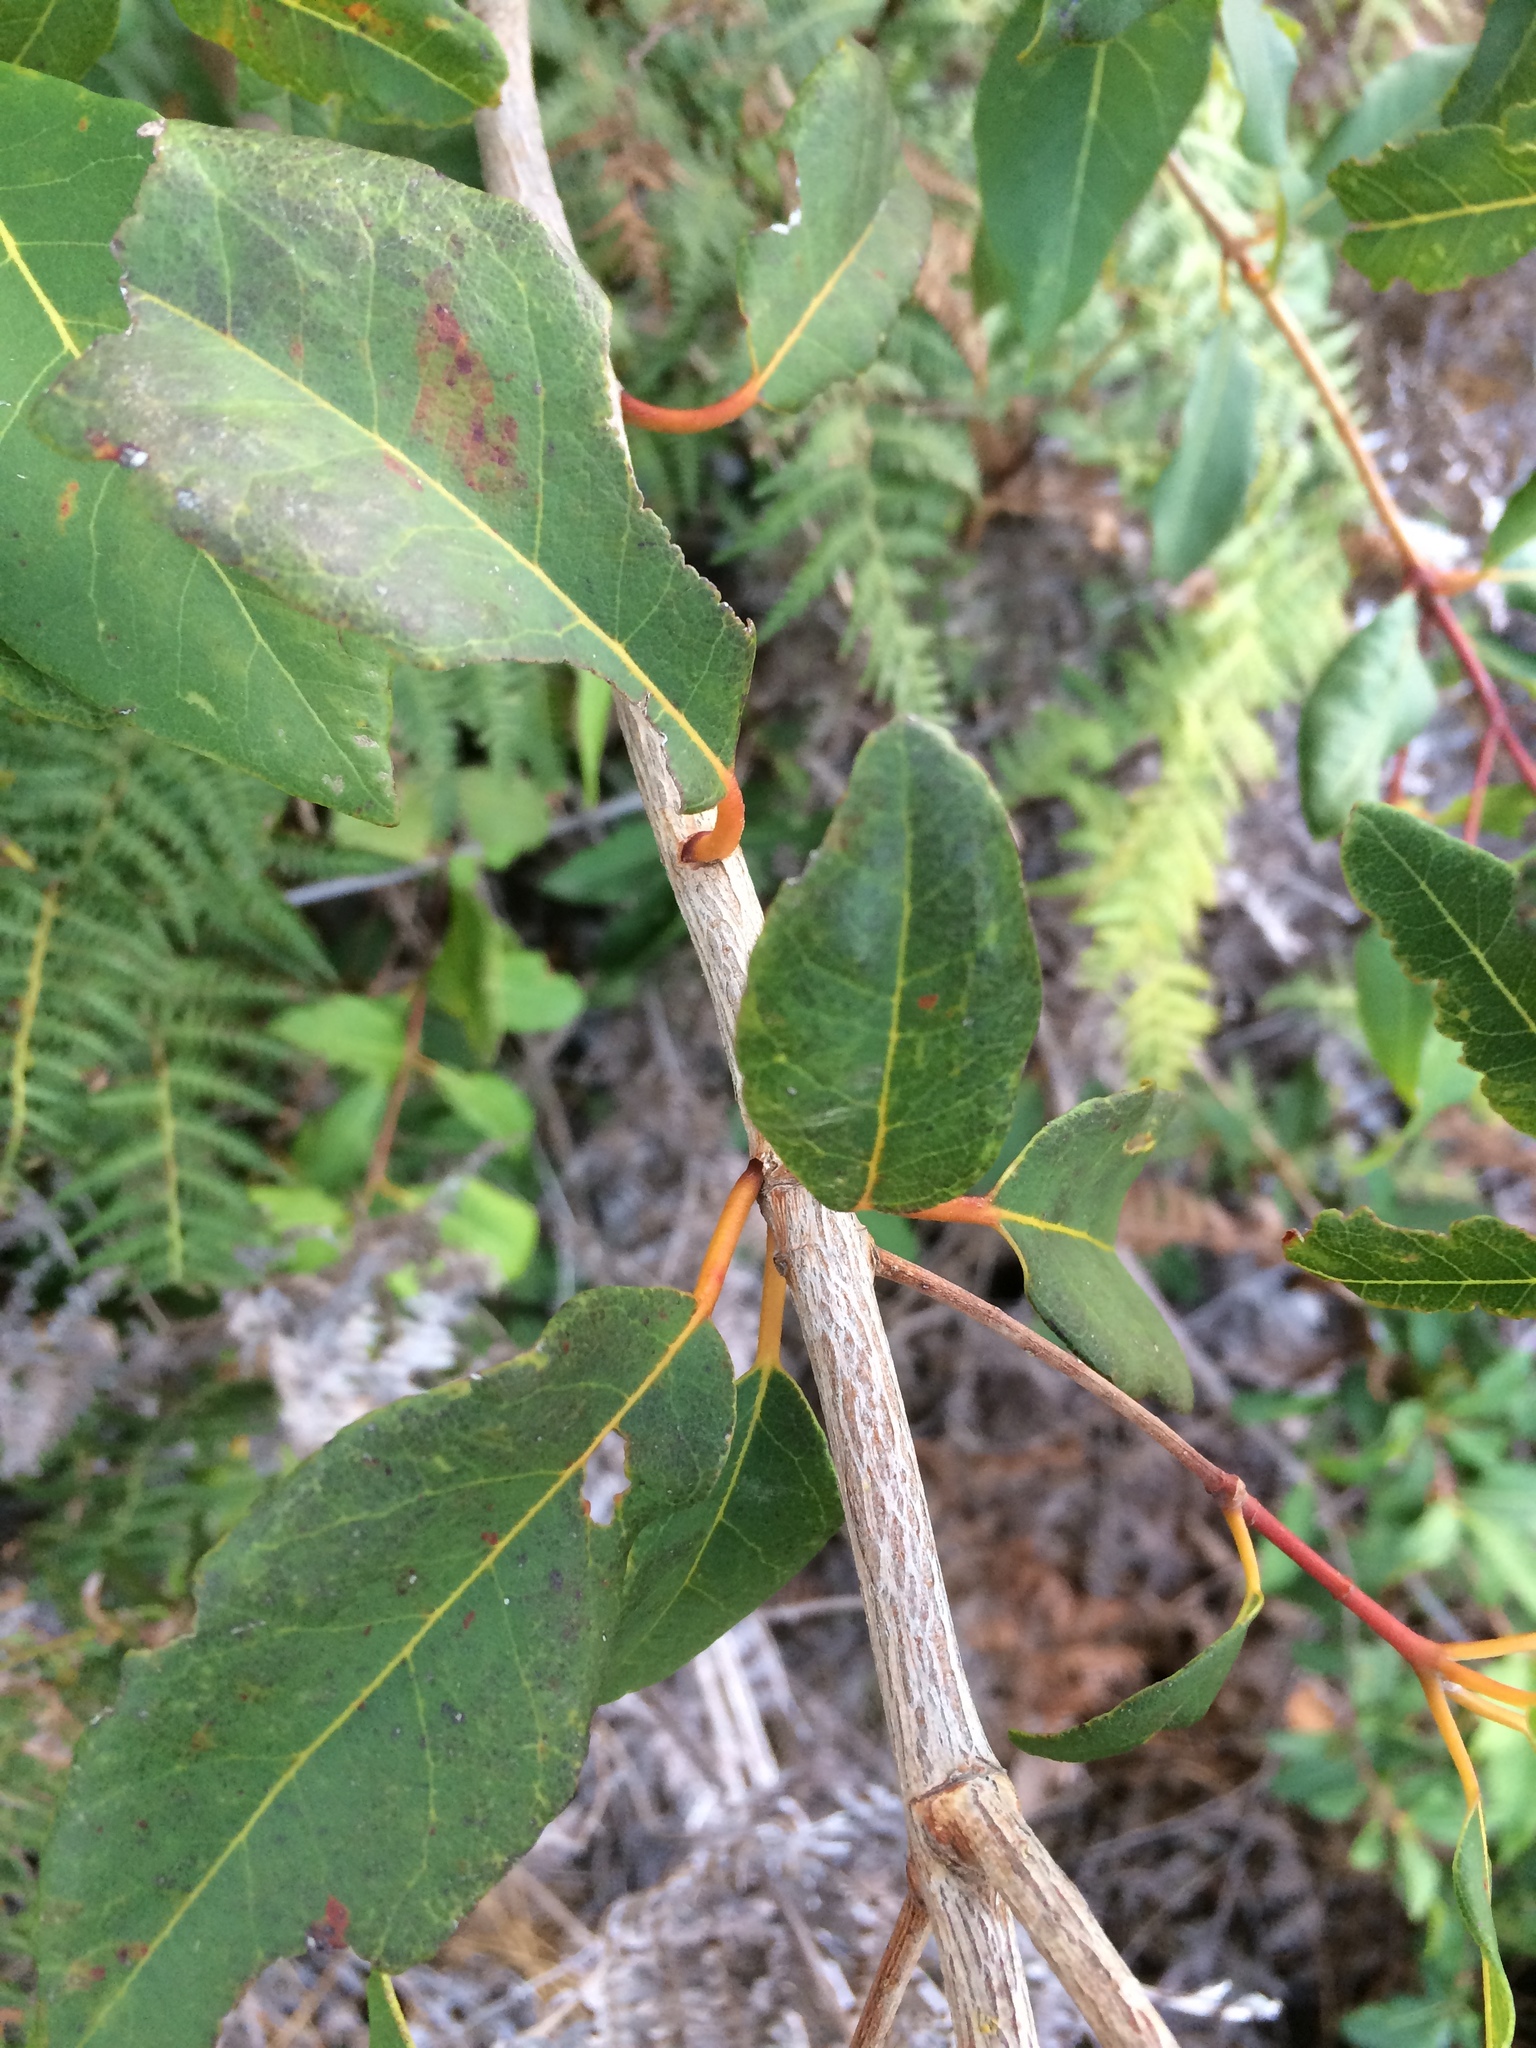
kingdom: Plantae
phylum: Tracheophyta
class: Magnoliopsida
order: Myrtales
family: Myrtaceae
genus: Syncarpia
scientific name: Syncarpia glomulifera
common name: Turpentine tree
